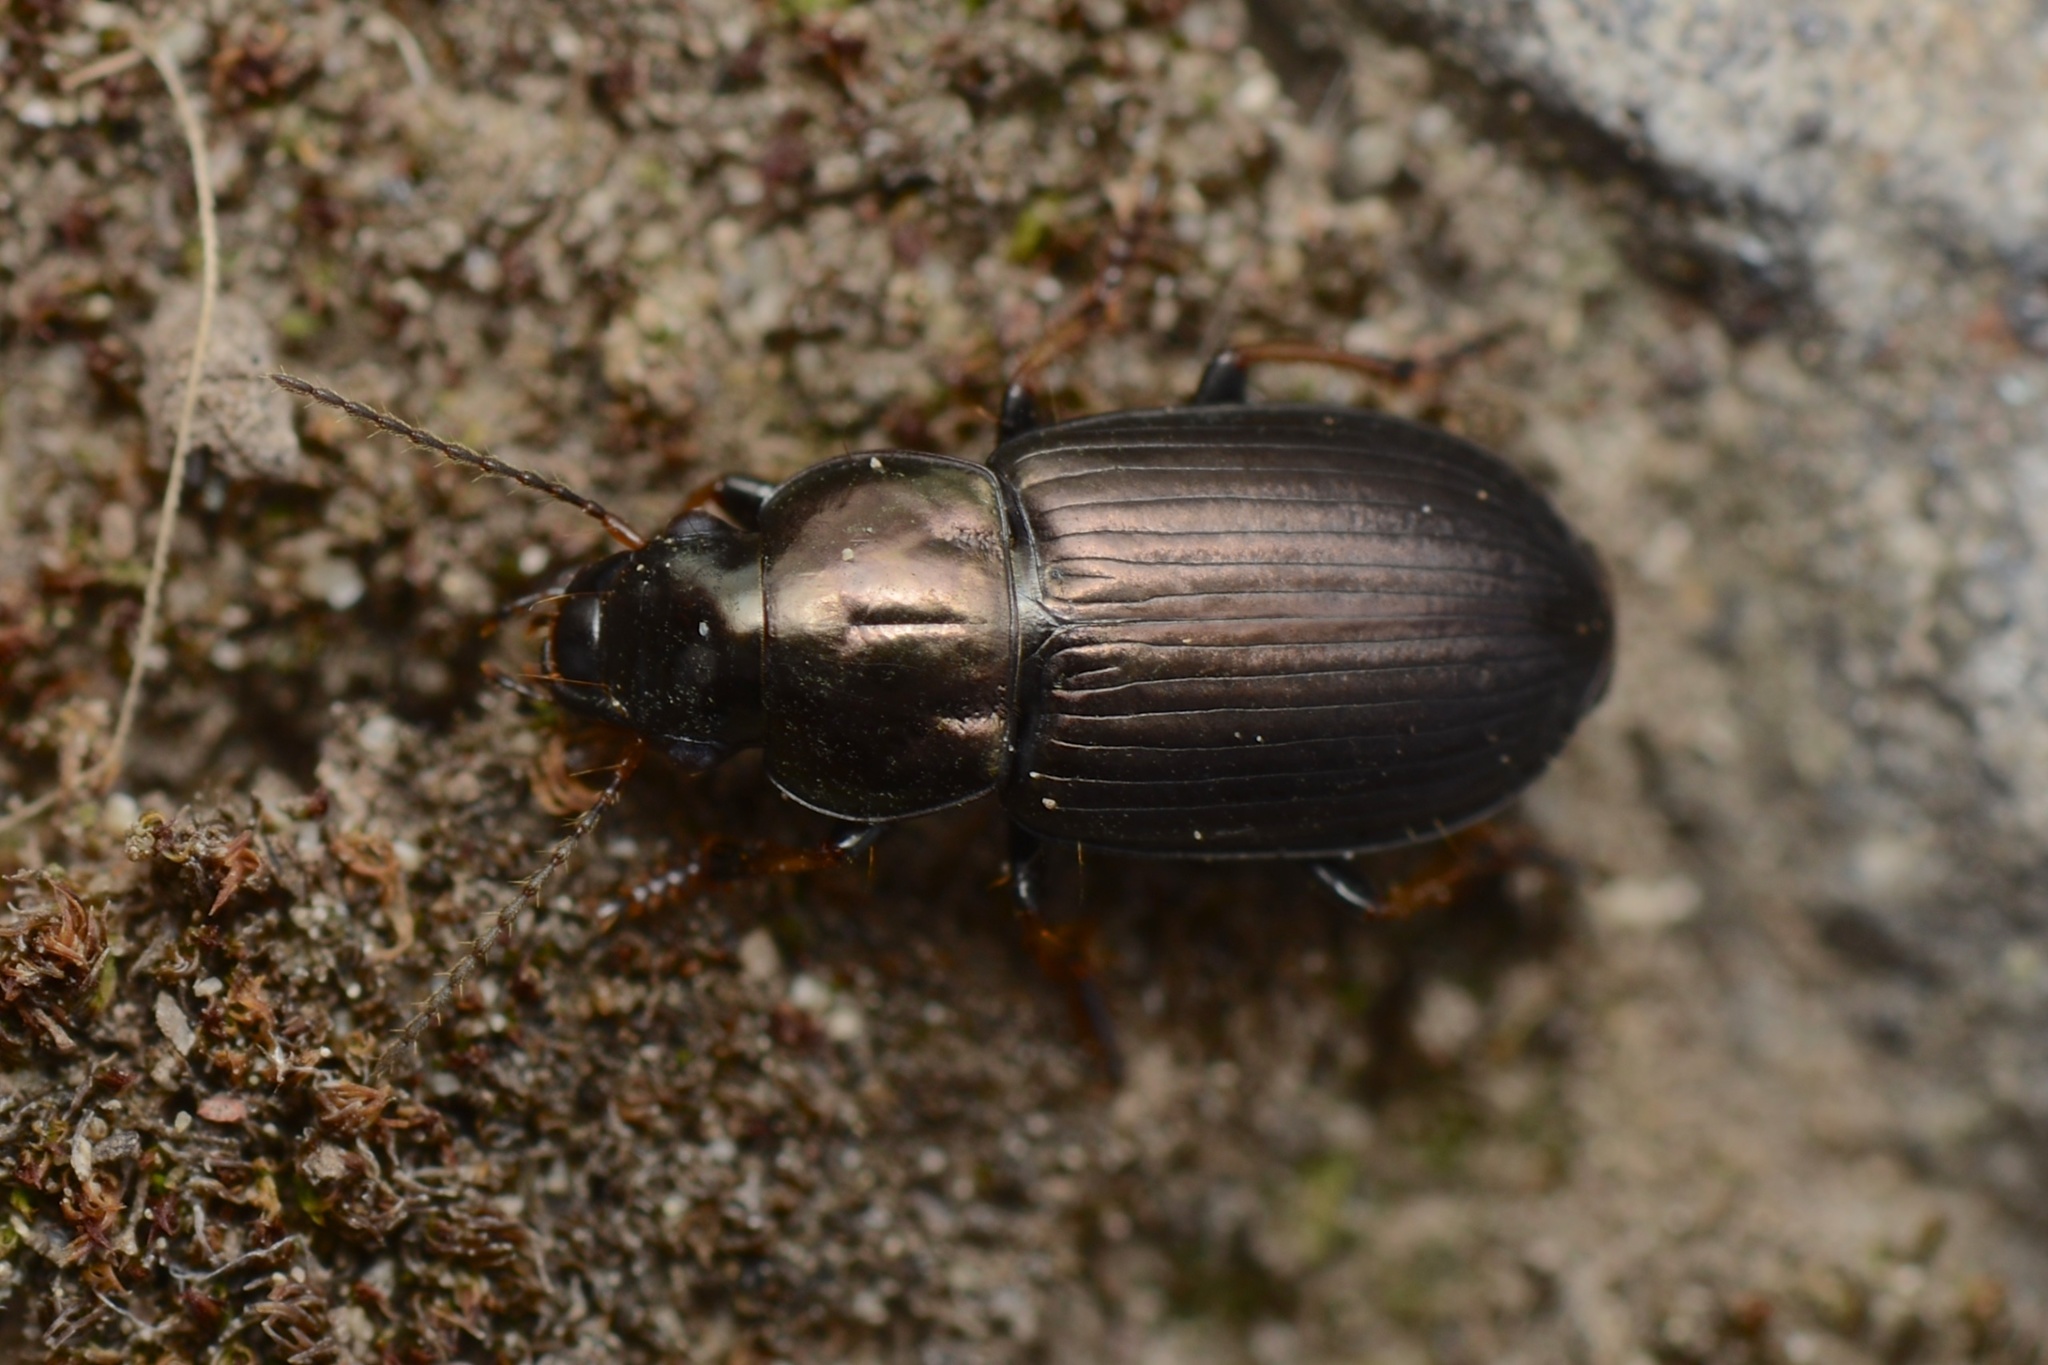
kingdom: Animalia
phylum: Arthropoda
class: Insecta
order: Coleoptera
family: Carabidae
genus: Hypharpax
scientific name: Hypharpax australis
